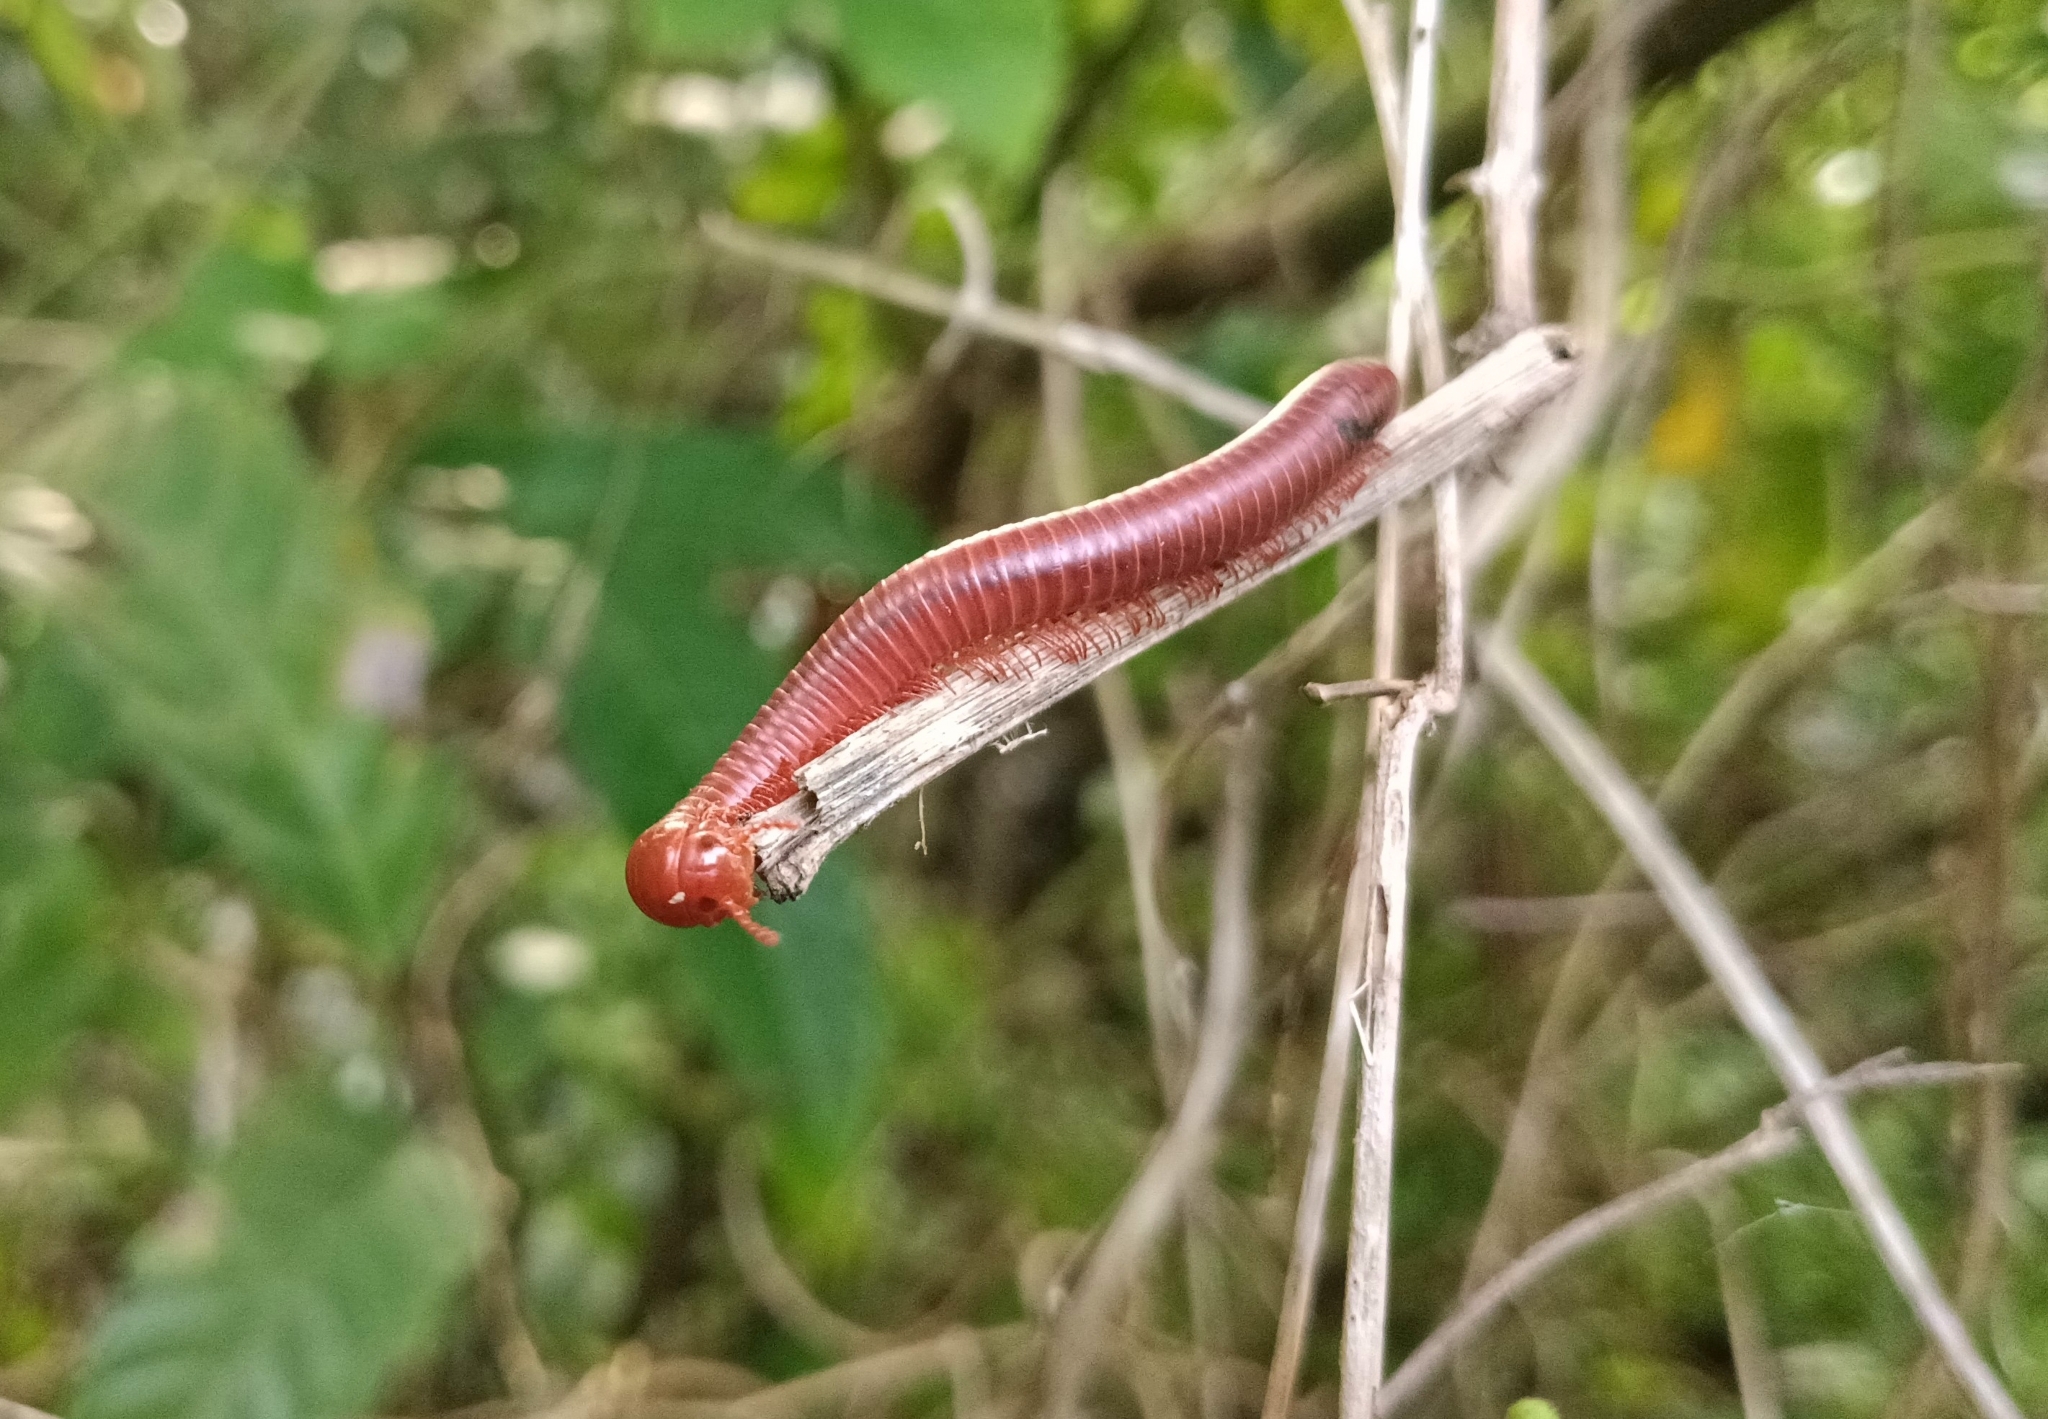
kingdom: Animalia
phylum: Arthropoda
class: Diplopoda
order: Spirobolida
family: Pachybolidae
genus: Trigoniulus
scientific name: Trigoniulus corallinus
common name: Millipede
